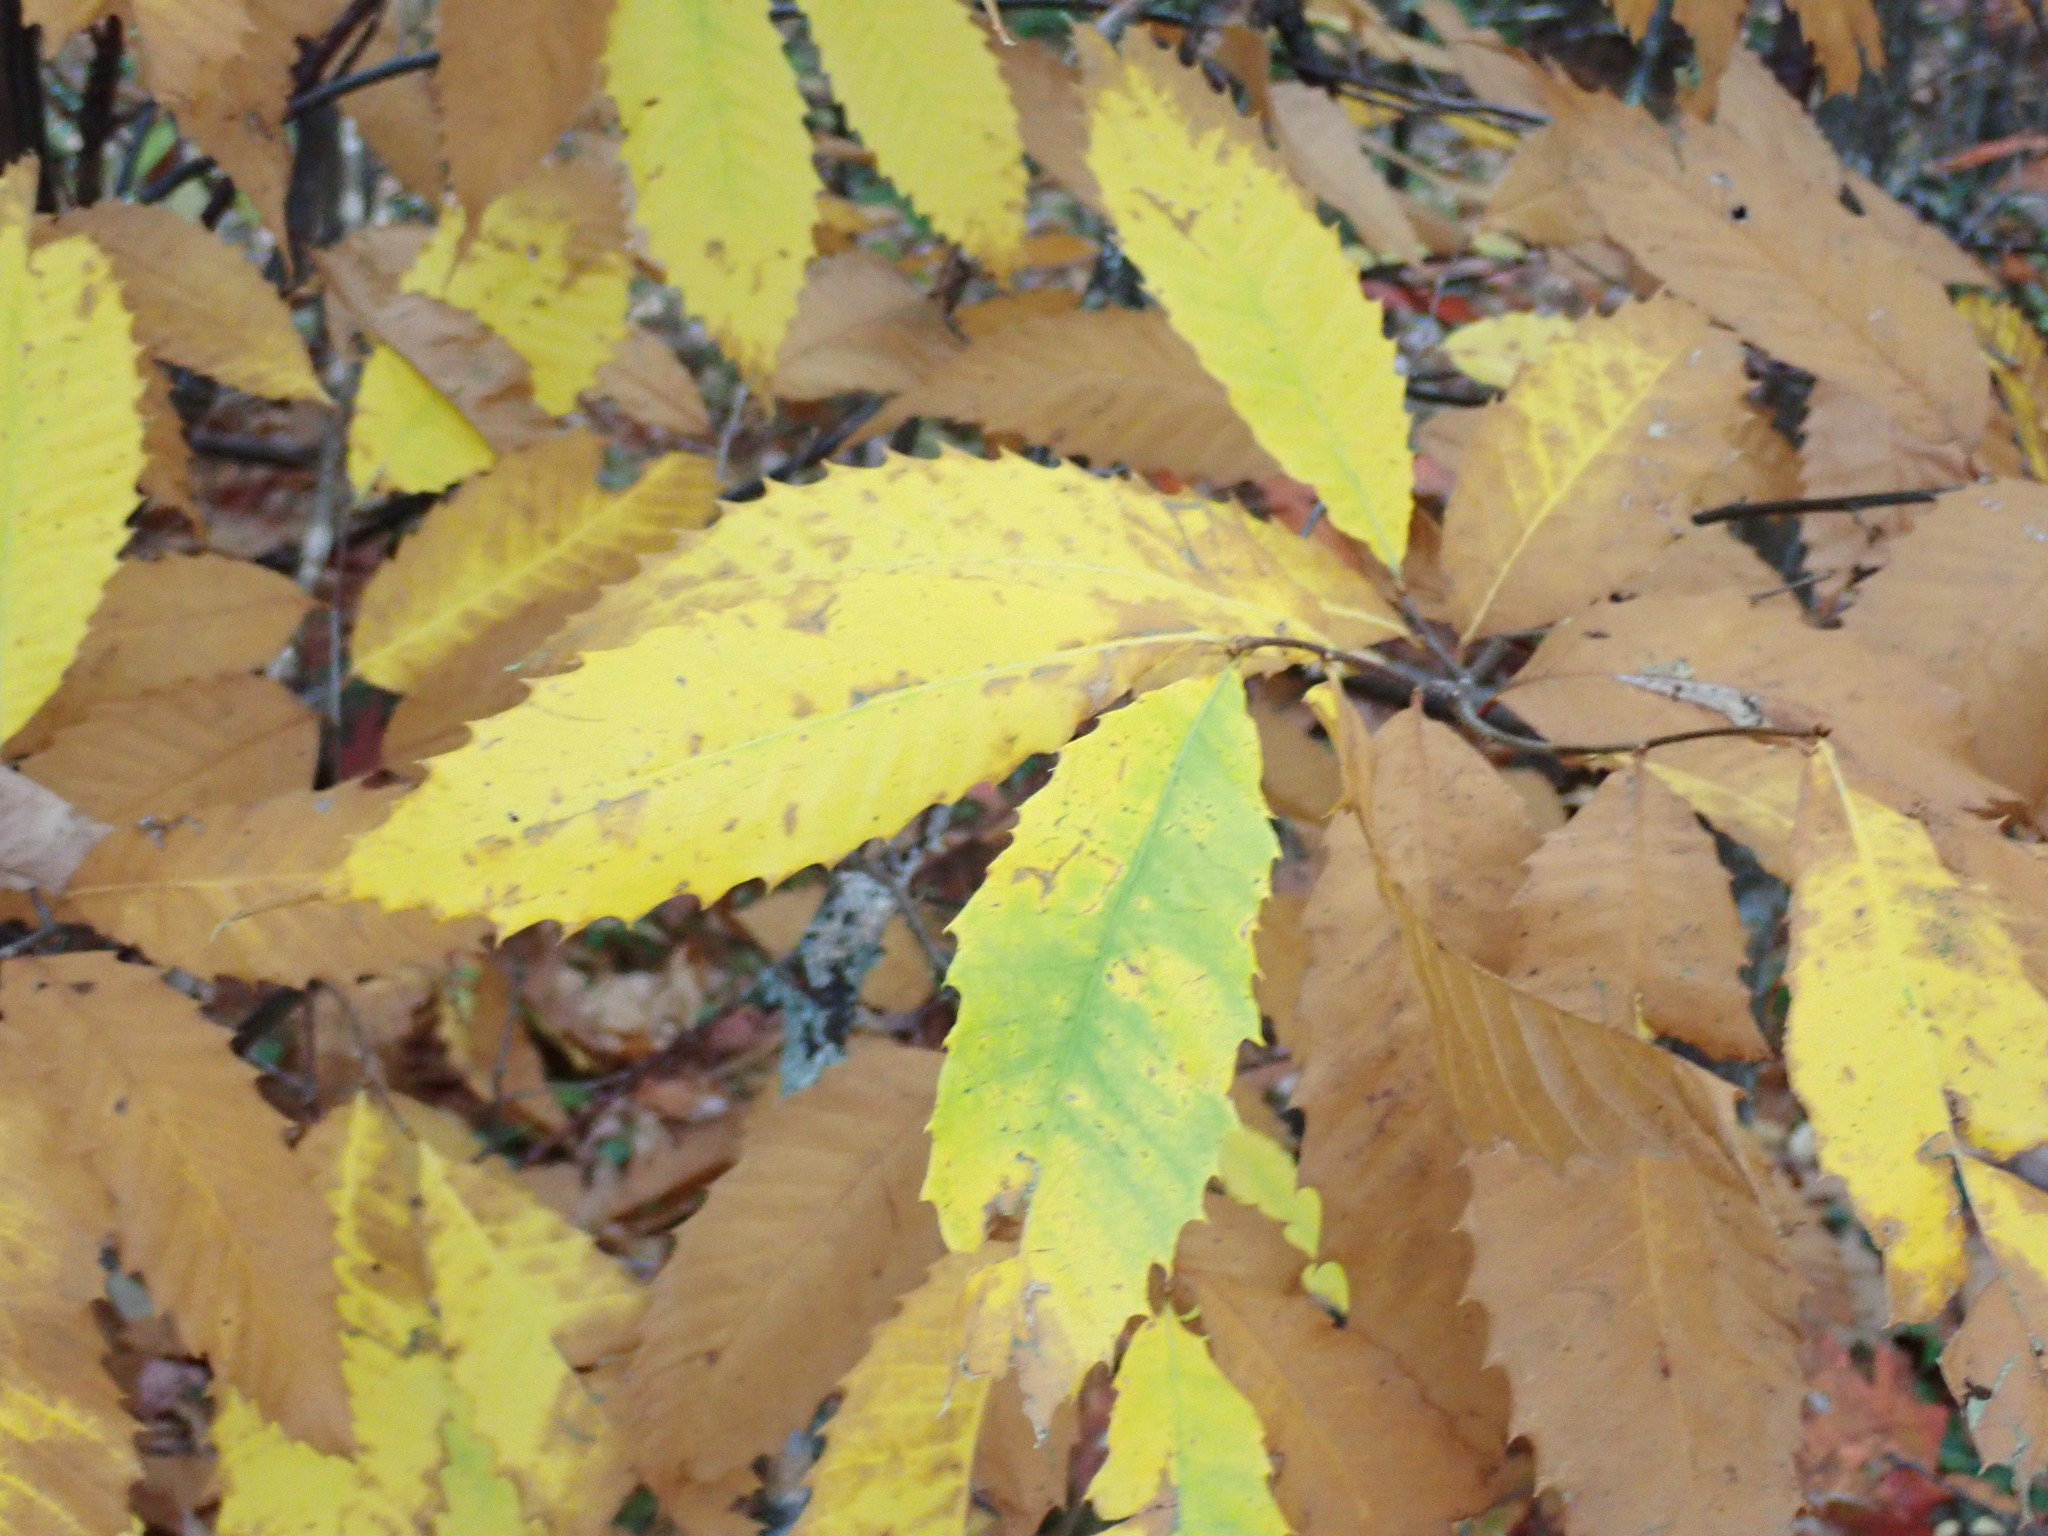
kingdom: Plantae
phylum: Tracheophyta
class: Magnoliopsida
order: Fagales
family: Fagaceae
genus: Castanea
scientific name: Castanea dentata
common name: American chestnut
